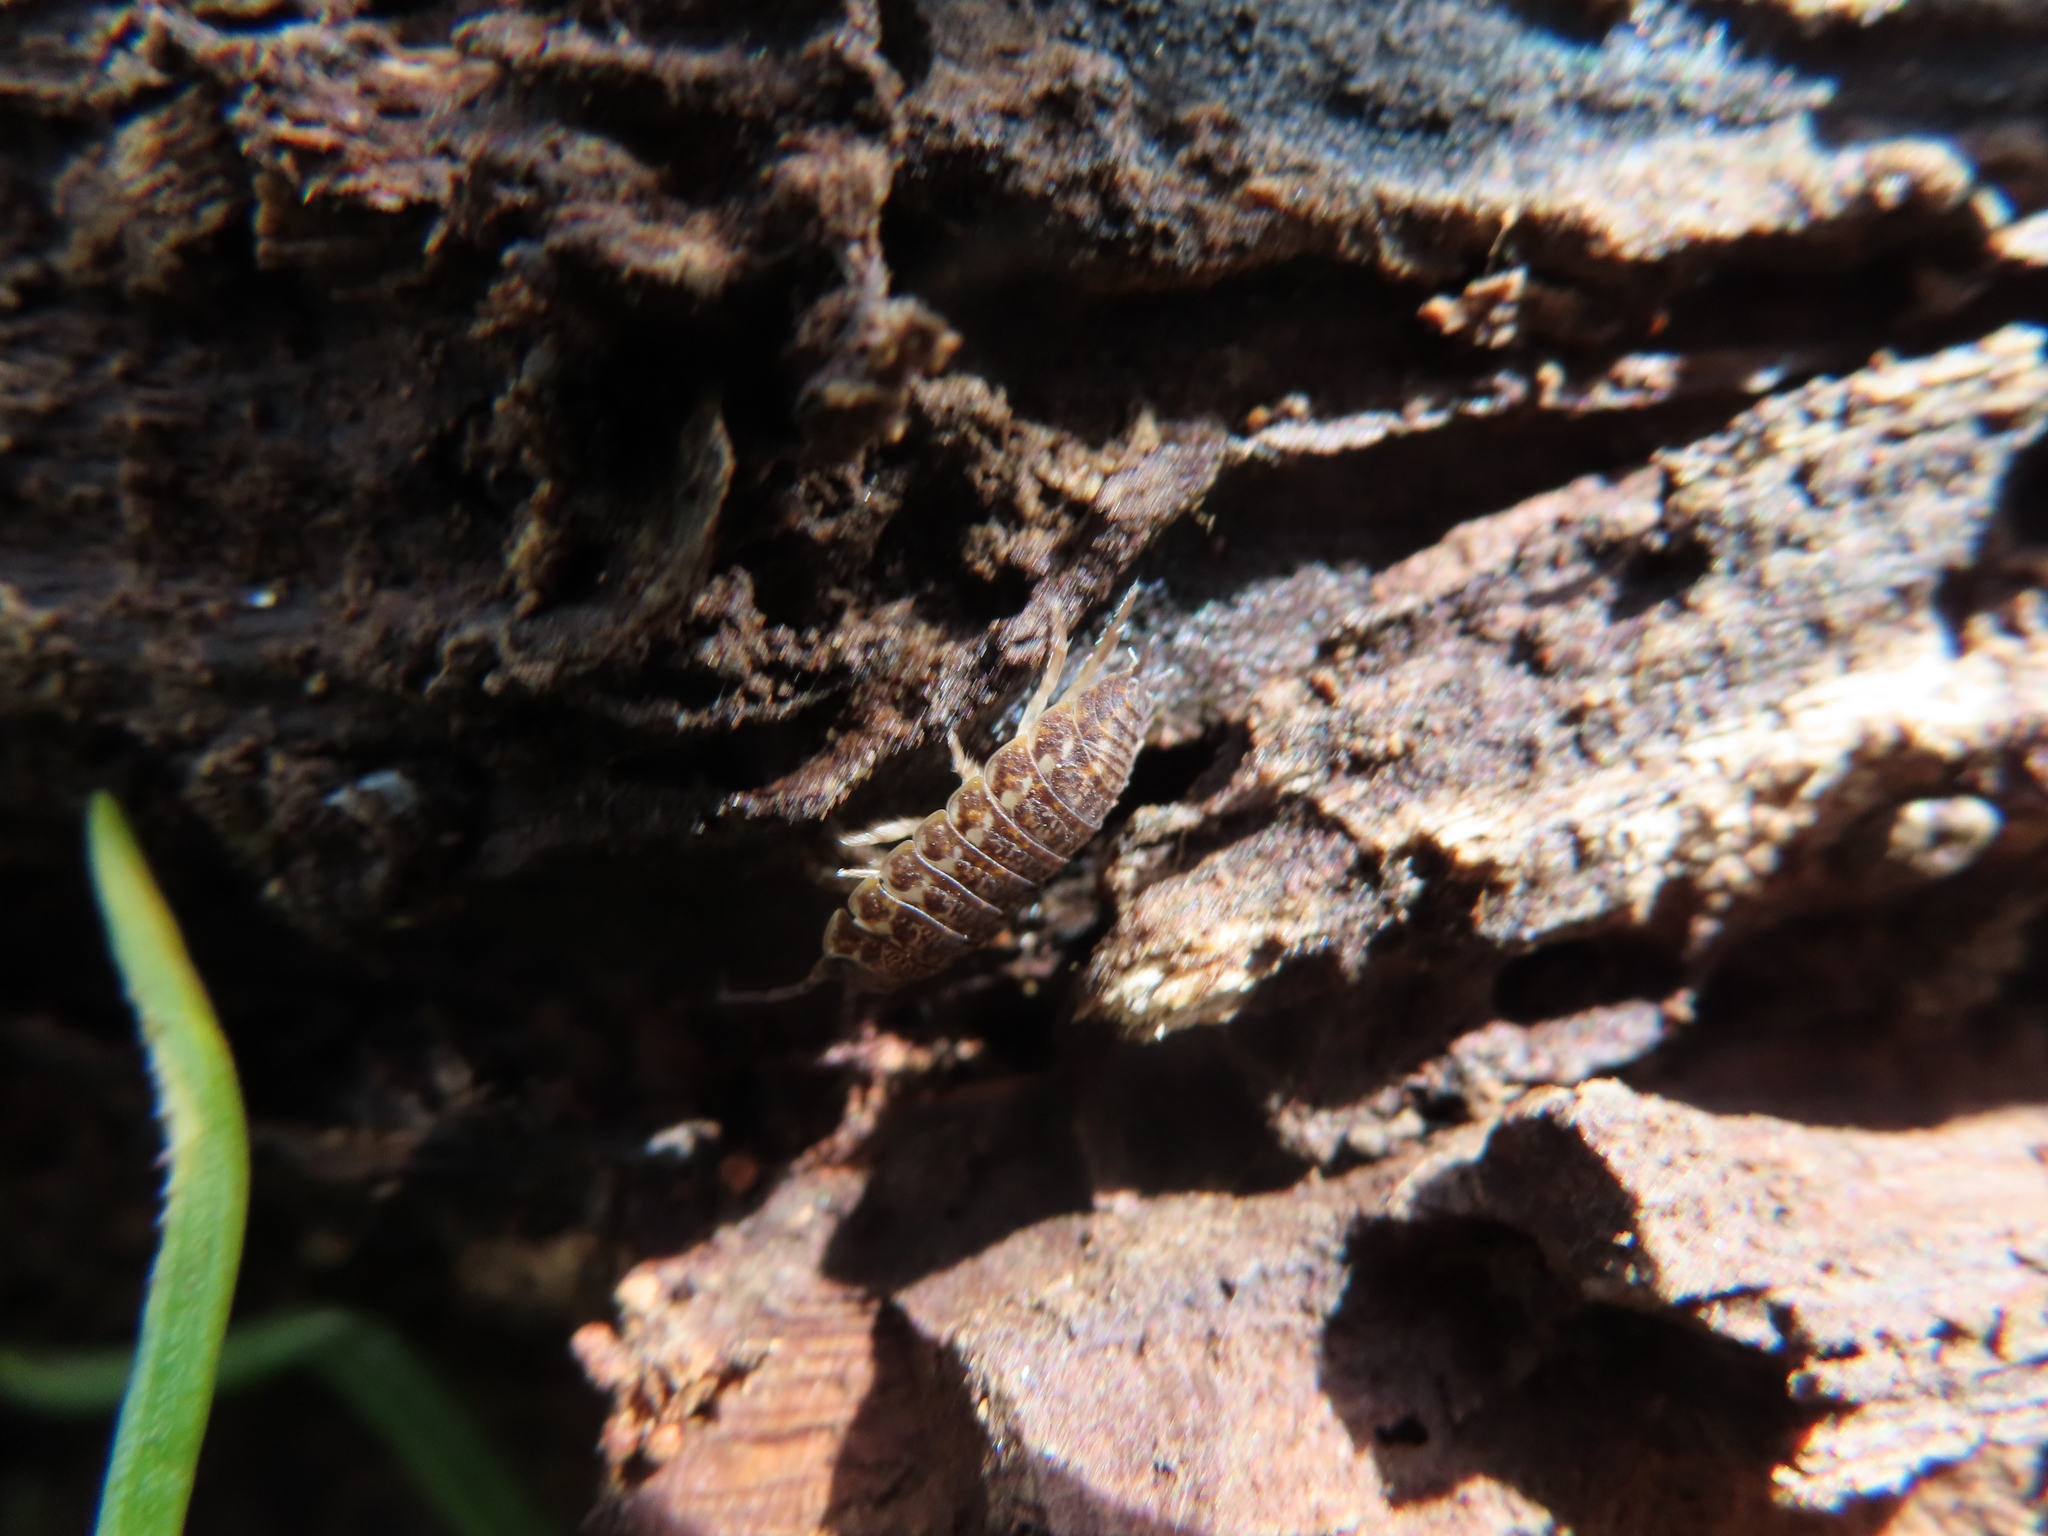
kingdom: Animalia
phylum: Arthropoda
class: Malacostraca
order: Isopoda
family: Trachelipodidae
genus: Trachelipus
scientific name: Trachelipus rathkii
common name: Isopod
